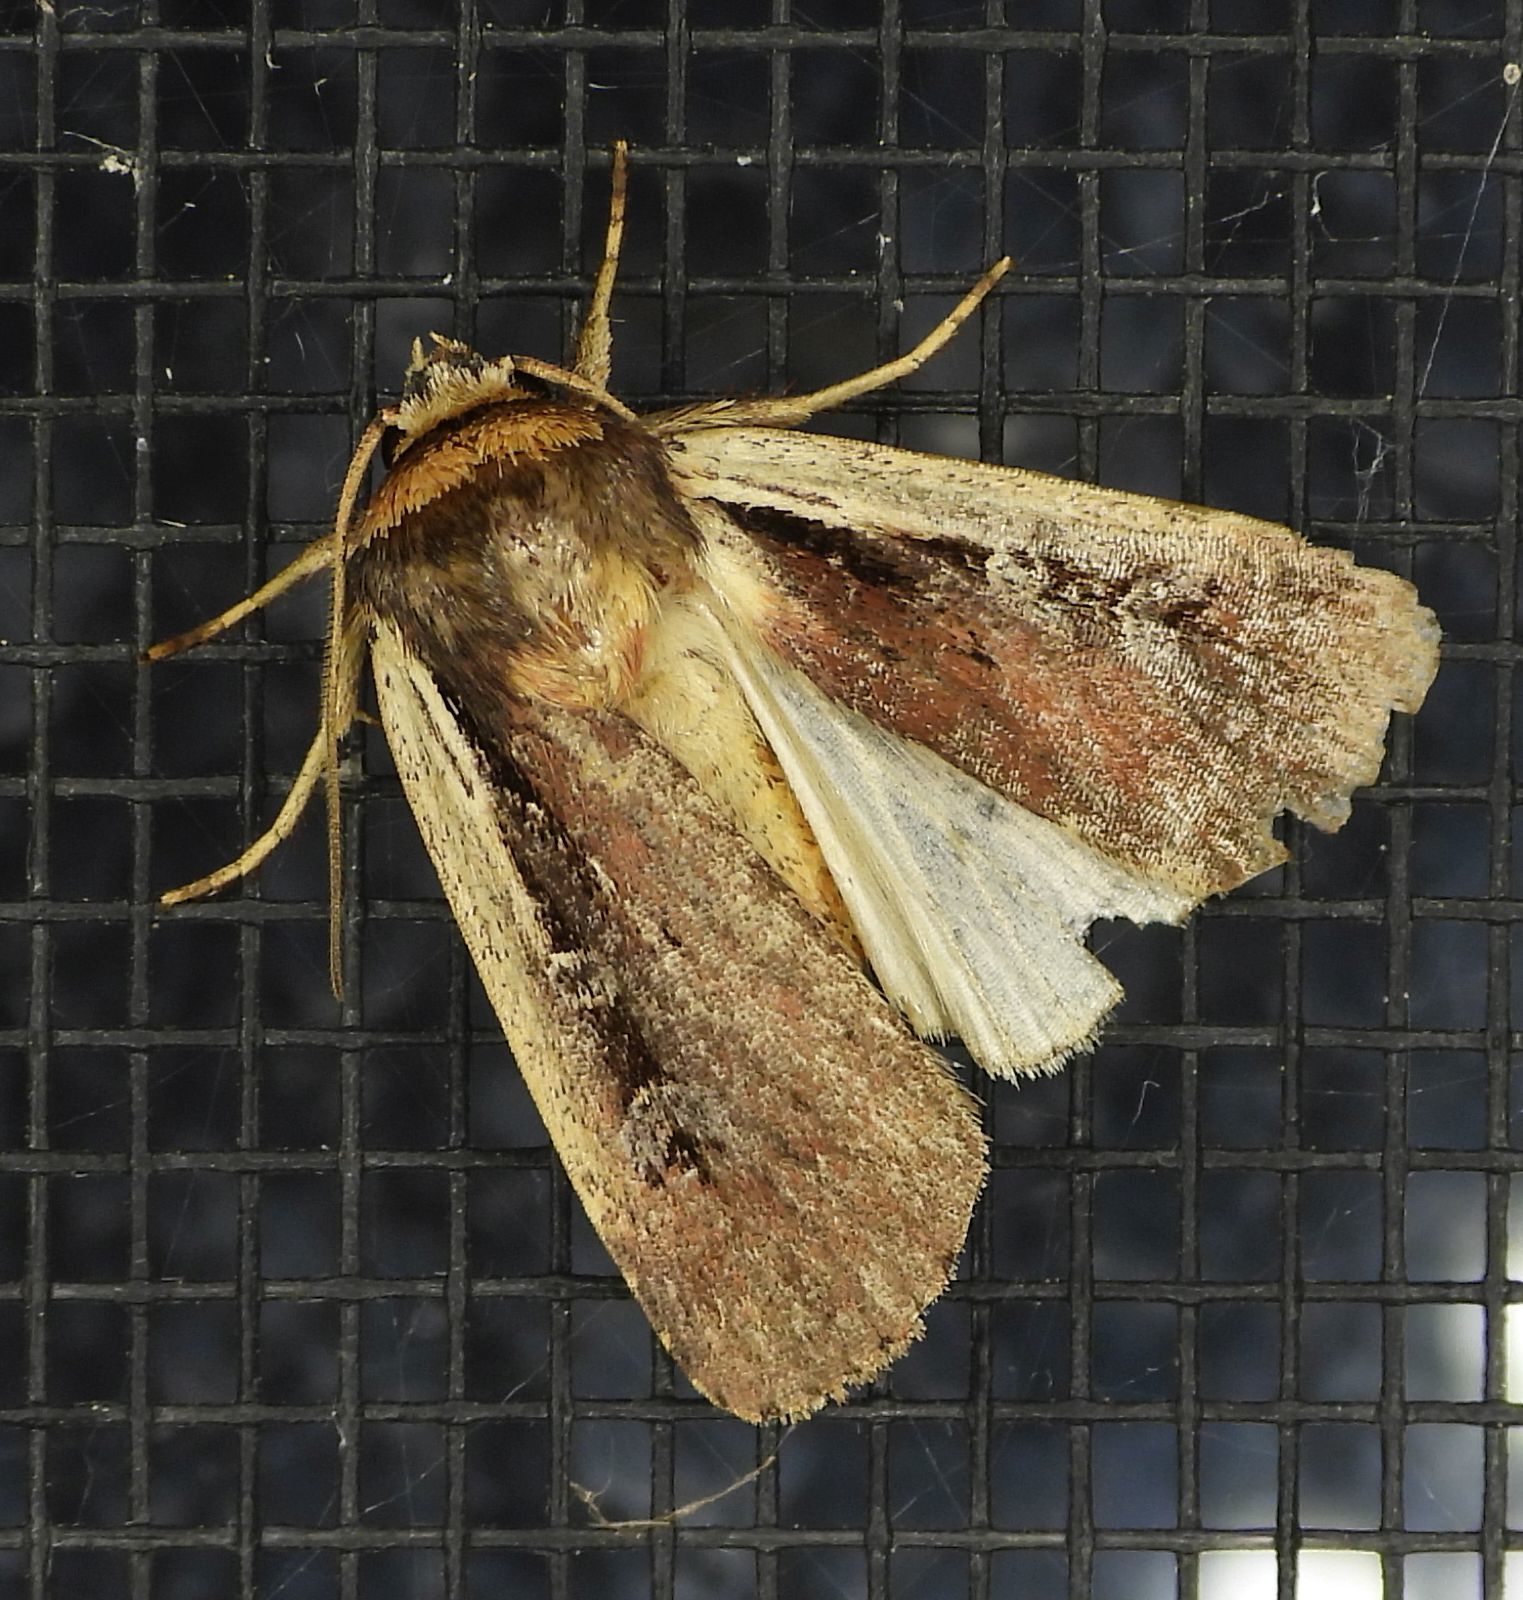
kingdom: Animalia
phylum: Arthropoda
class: Insecta
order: Lepidoptera
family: Noctuidae
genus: Ochropleura
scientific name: Ochropleura implecta
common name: Flame-shouldered dart
